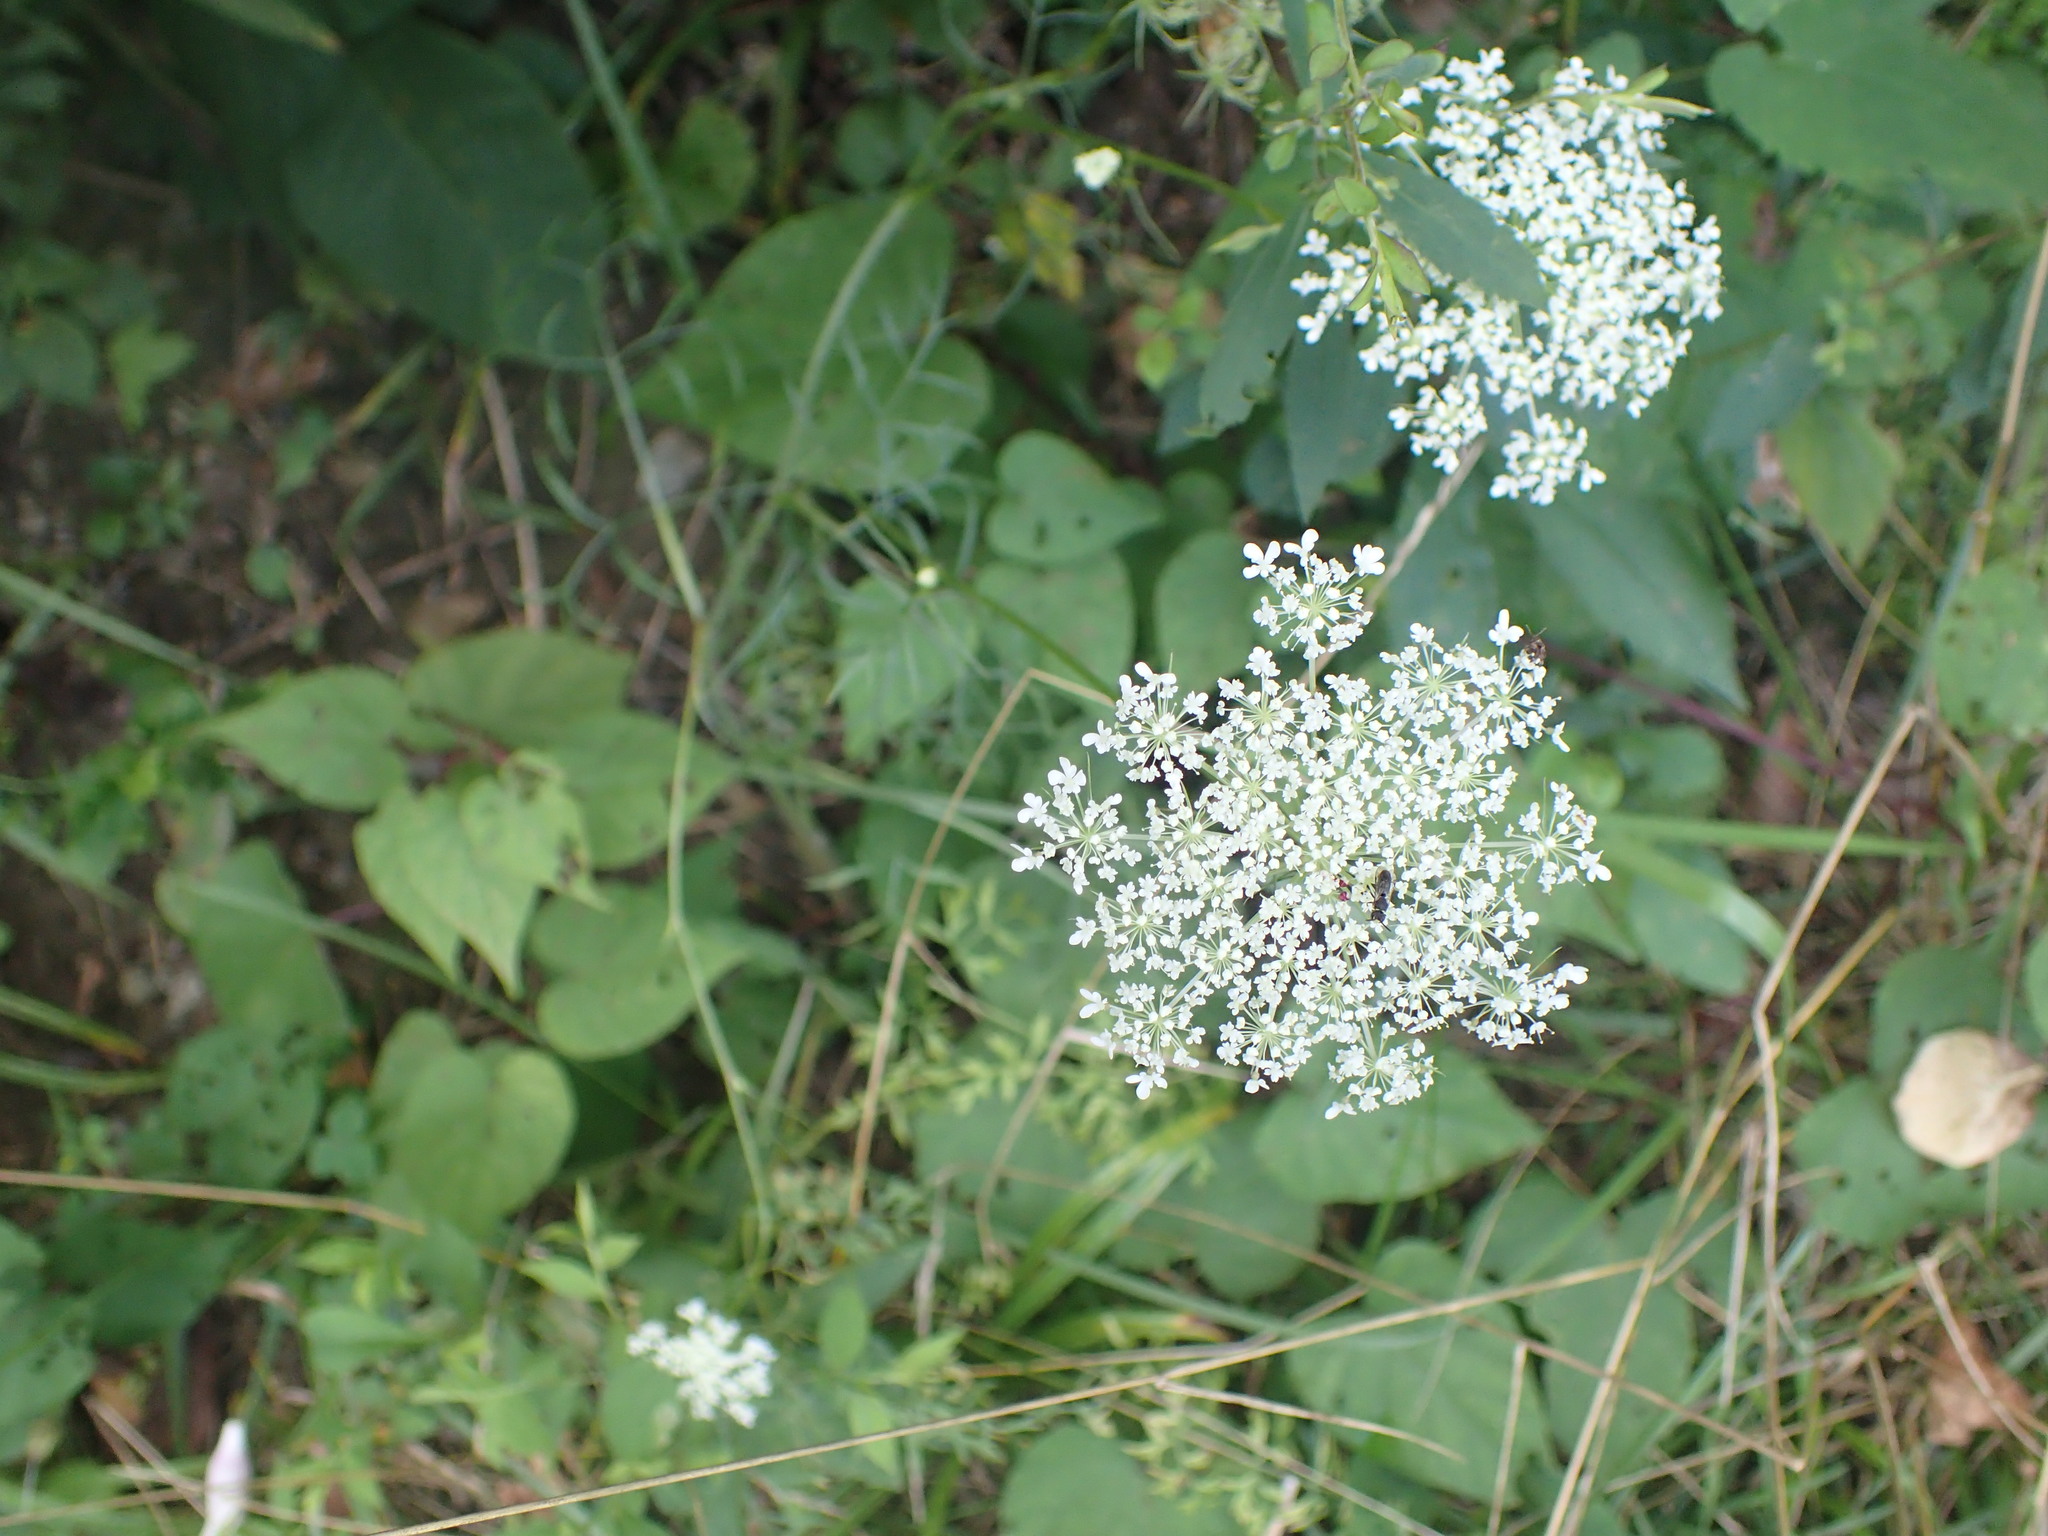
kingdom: Plantae
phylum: Tracheophyta
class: Magnoliopsida
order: Apiales
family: Apiaceae
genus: Daucus
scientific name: Daucus carota
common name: Wild carrot
